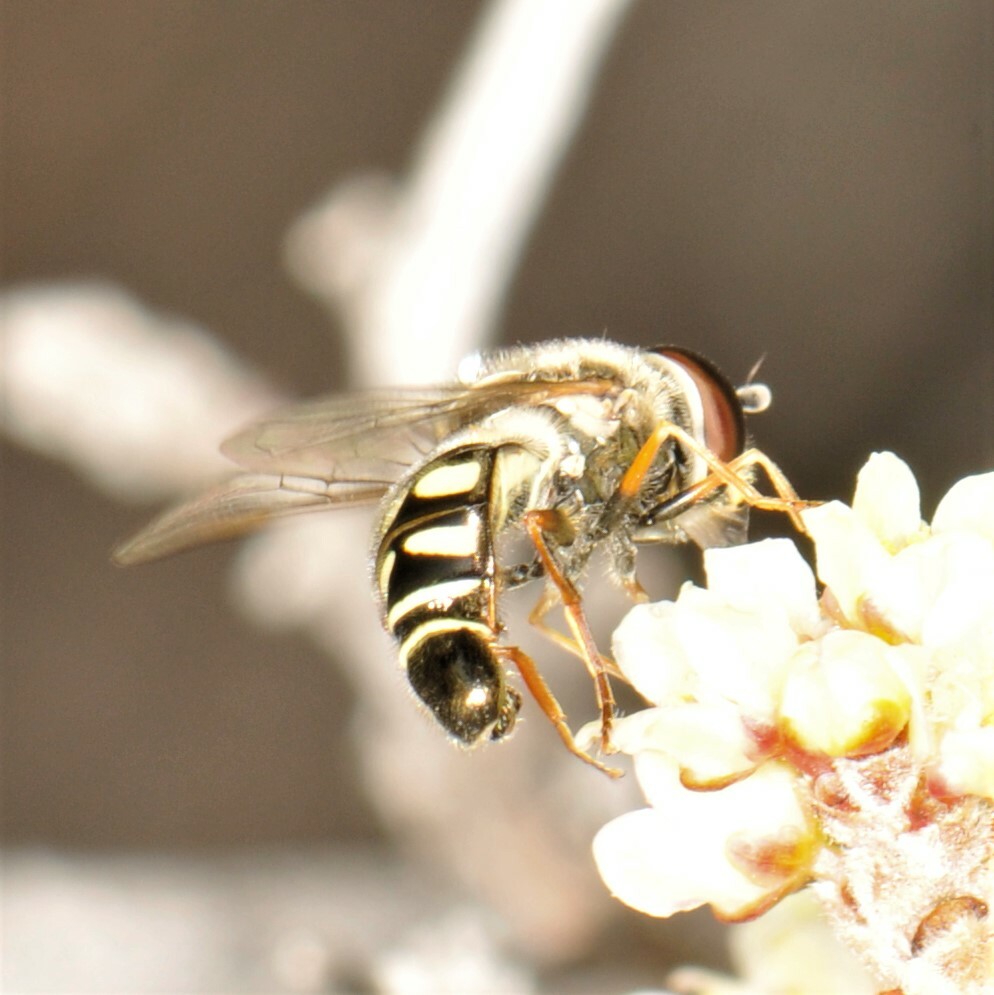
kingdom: Animalia
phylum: Arthropoda
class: Insecta
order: Diptera
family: Syrphidae
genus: Eupeodes
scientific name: Eupeodes volucris
